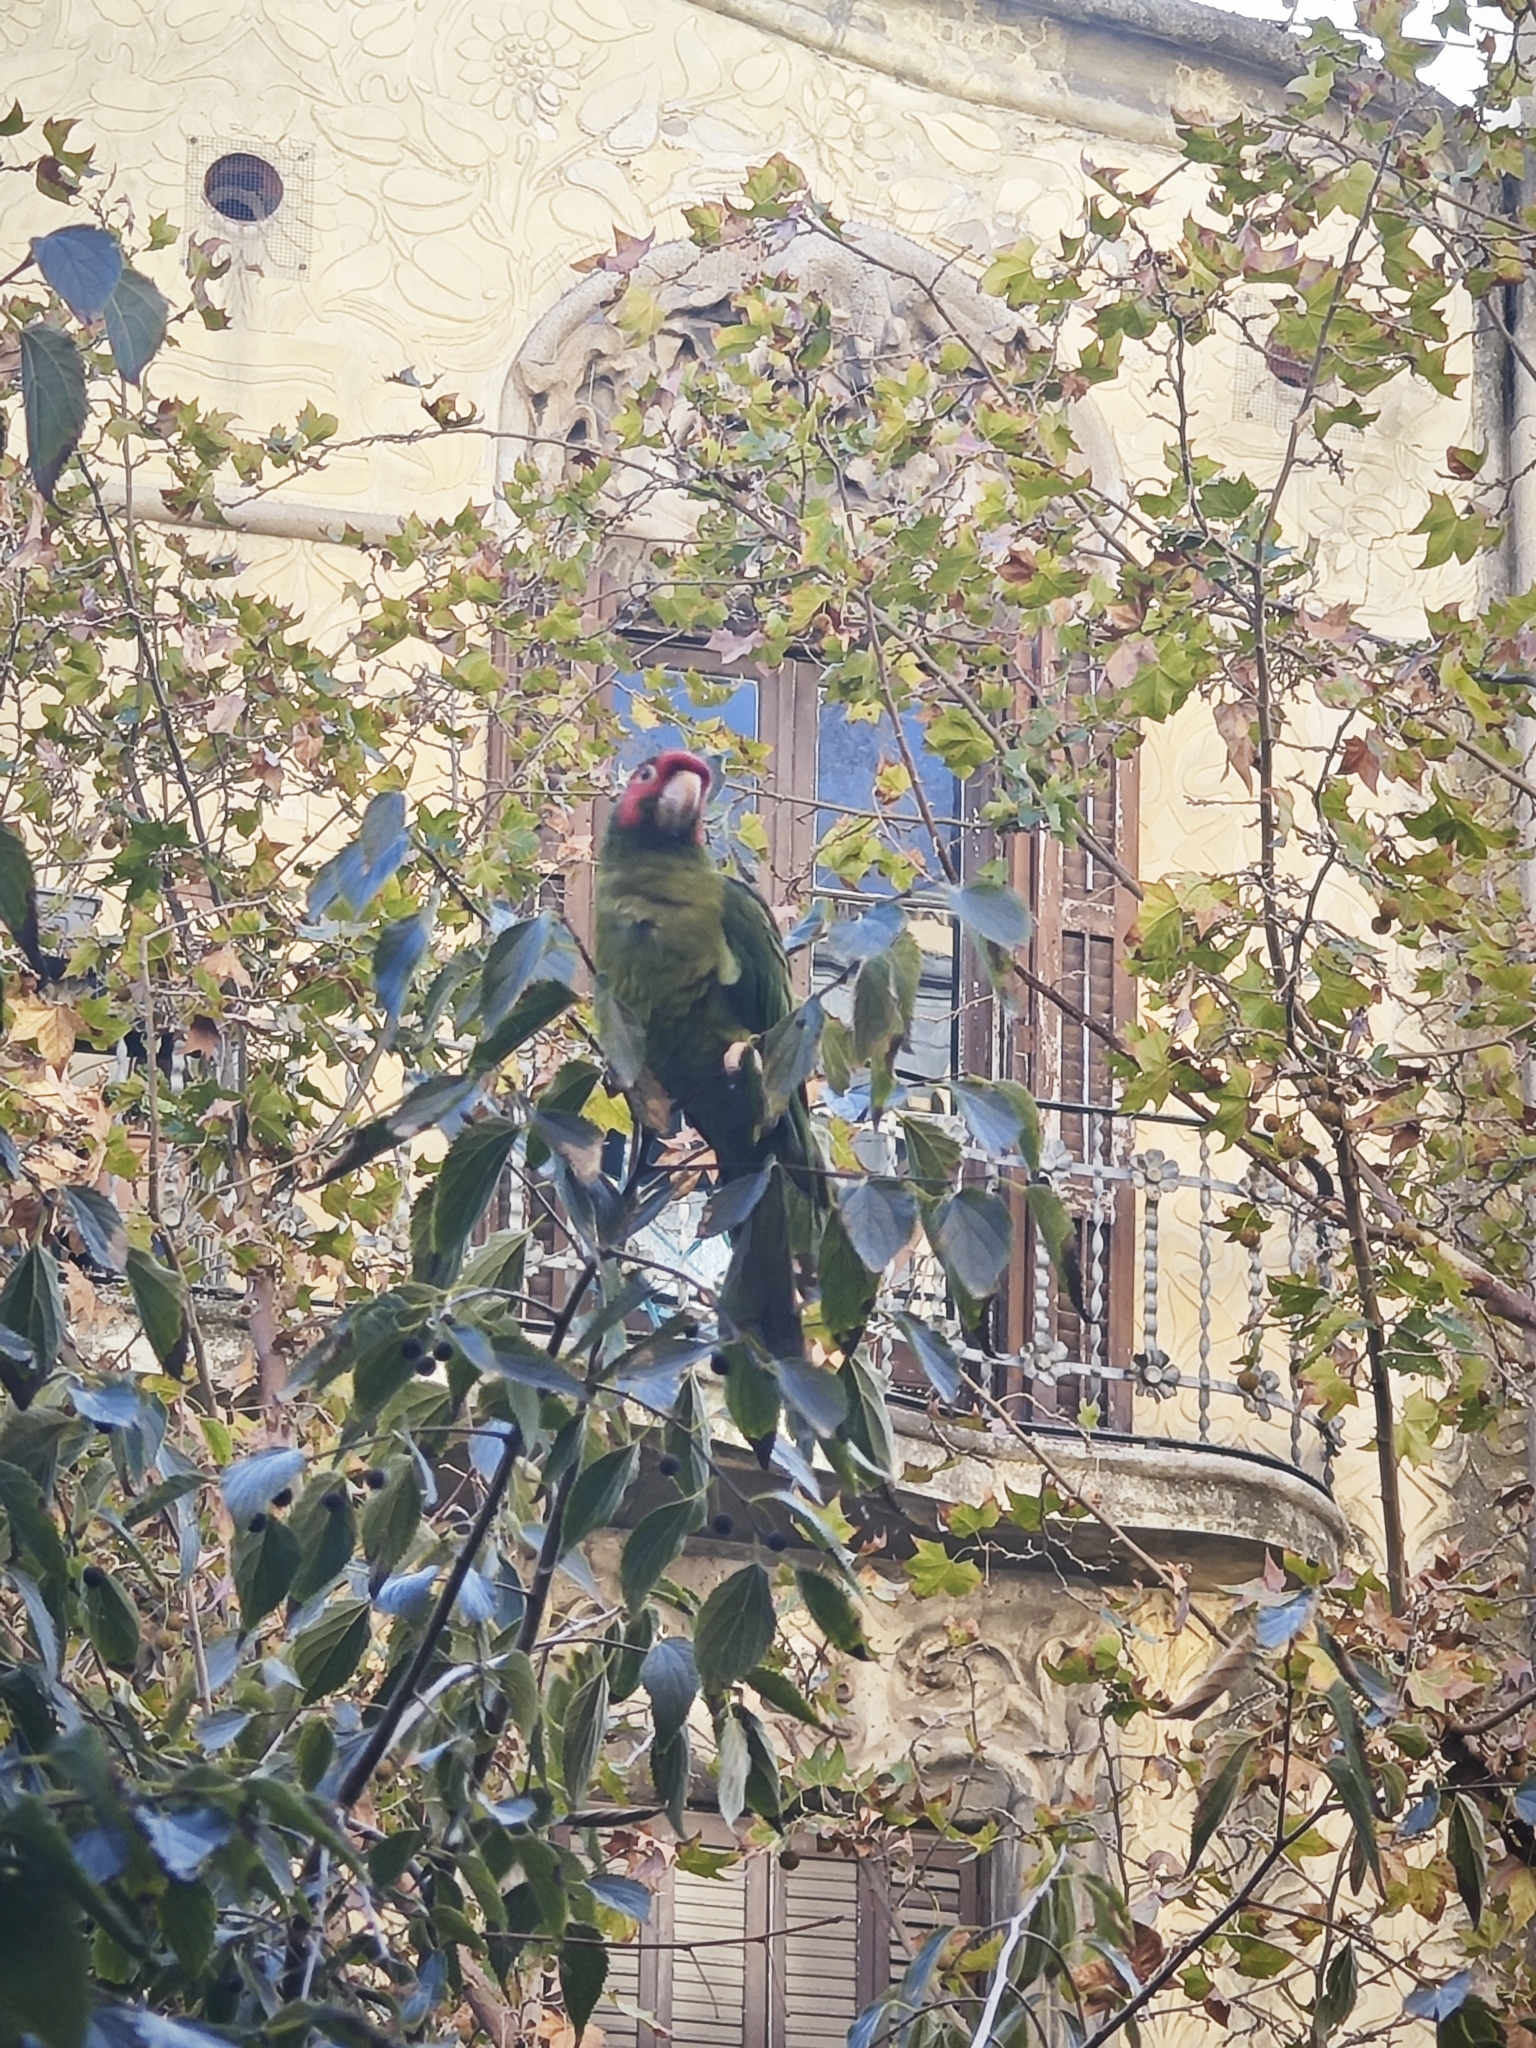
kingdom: Animalia
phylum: Chordata
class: Aves
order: Psittaciformes
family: Psittacidae
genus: Aratinga
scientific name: Aratinga mitrata
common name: Mitred parakeet
